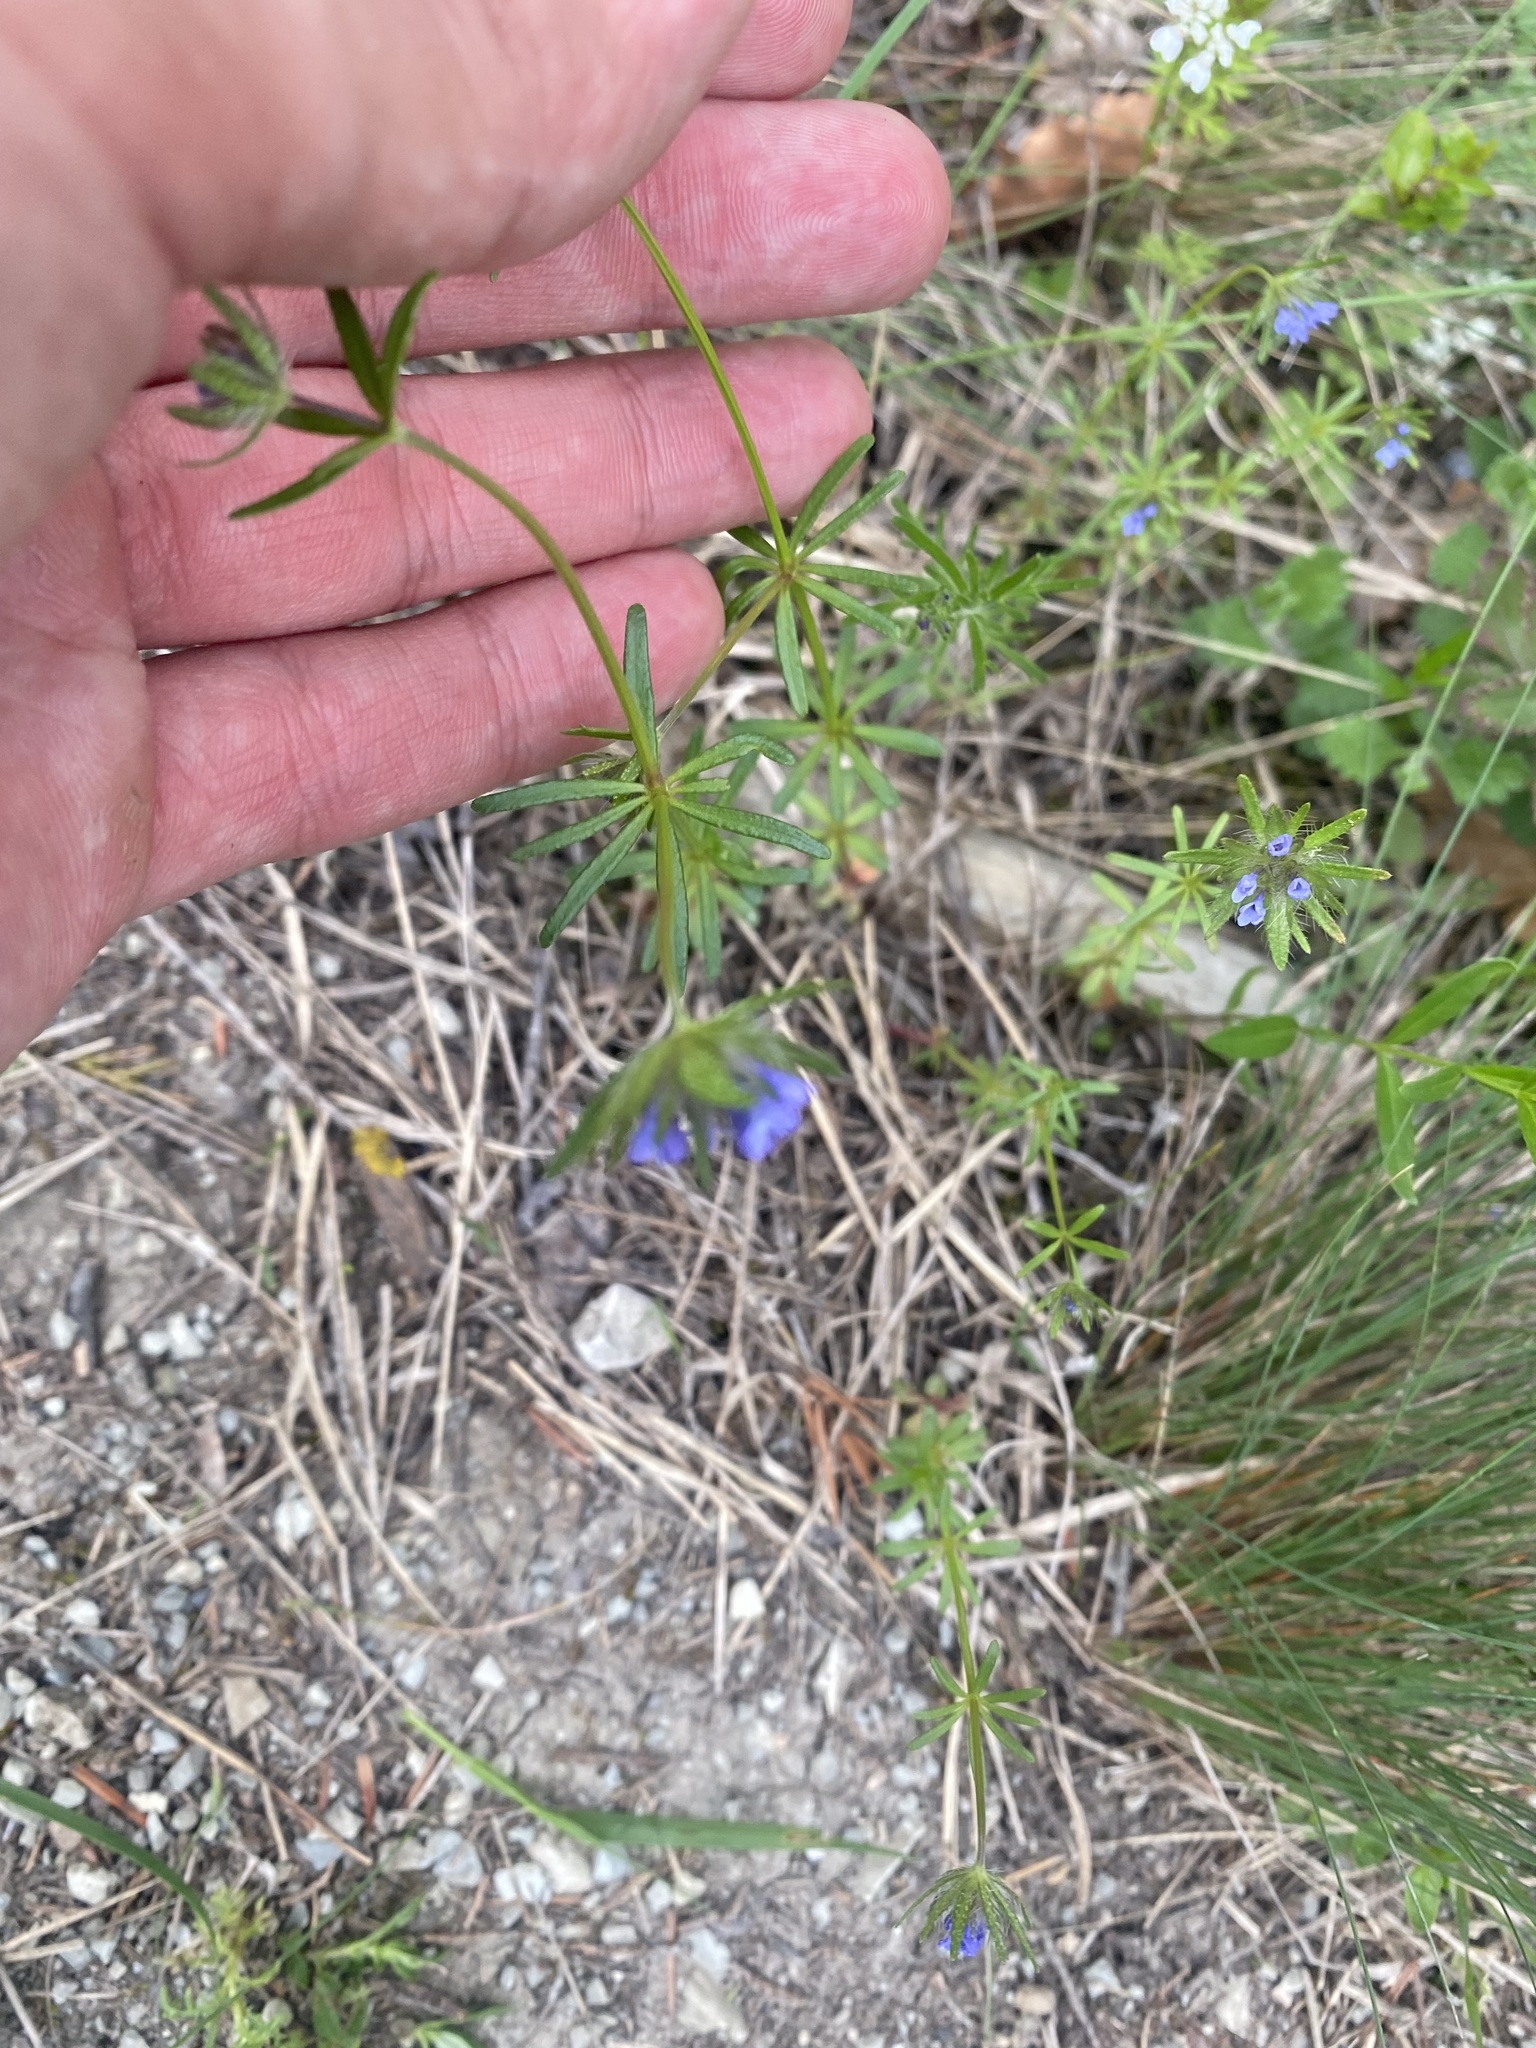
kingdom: Plantae
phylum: Tracheophyta
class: Magnoliopsida
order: Gentianales
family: Rubiaceae
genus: Sherardia
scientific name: Sherardia arvensis
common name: Field madder
